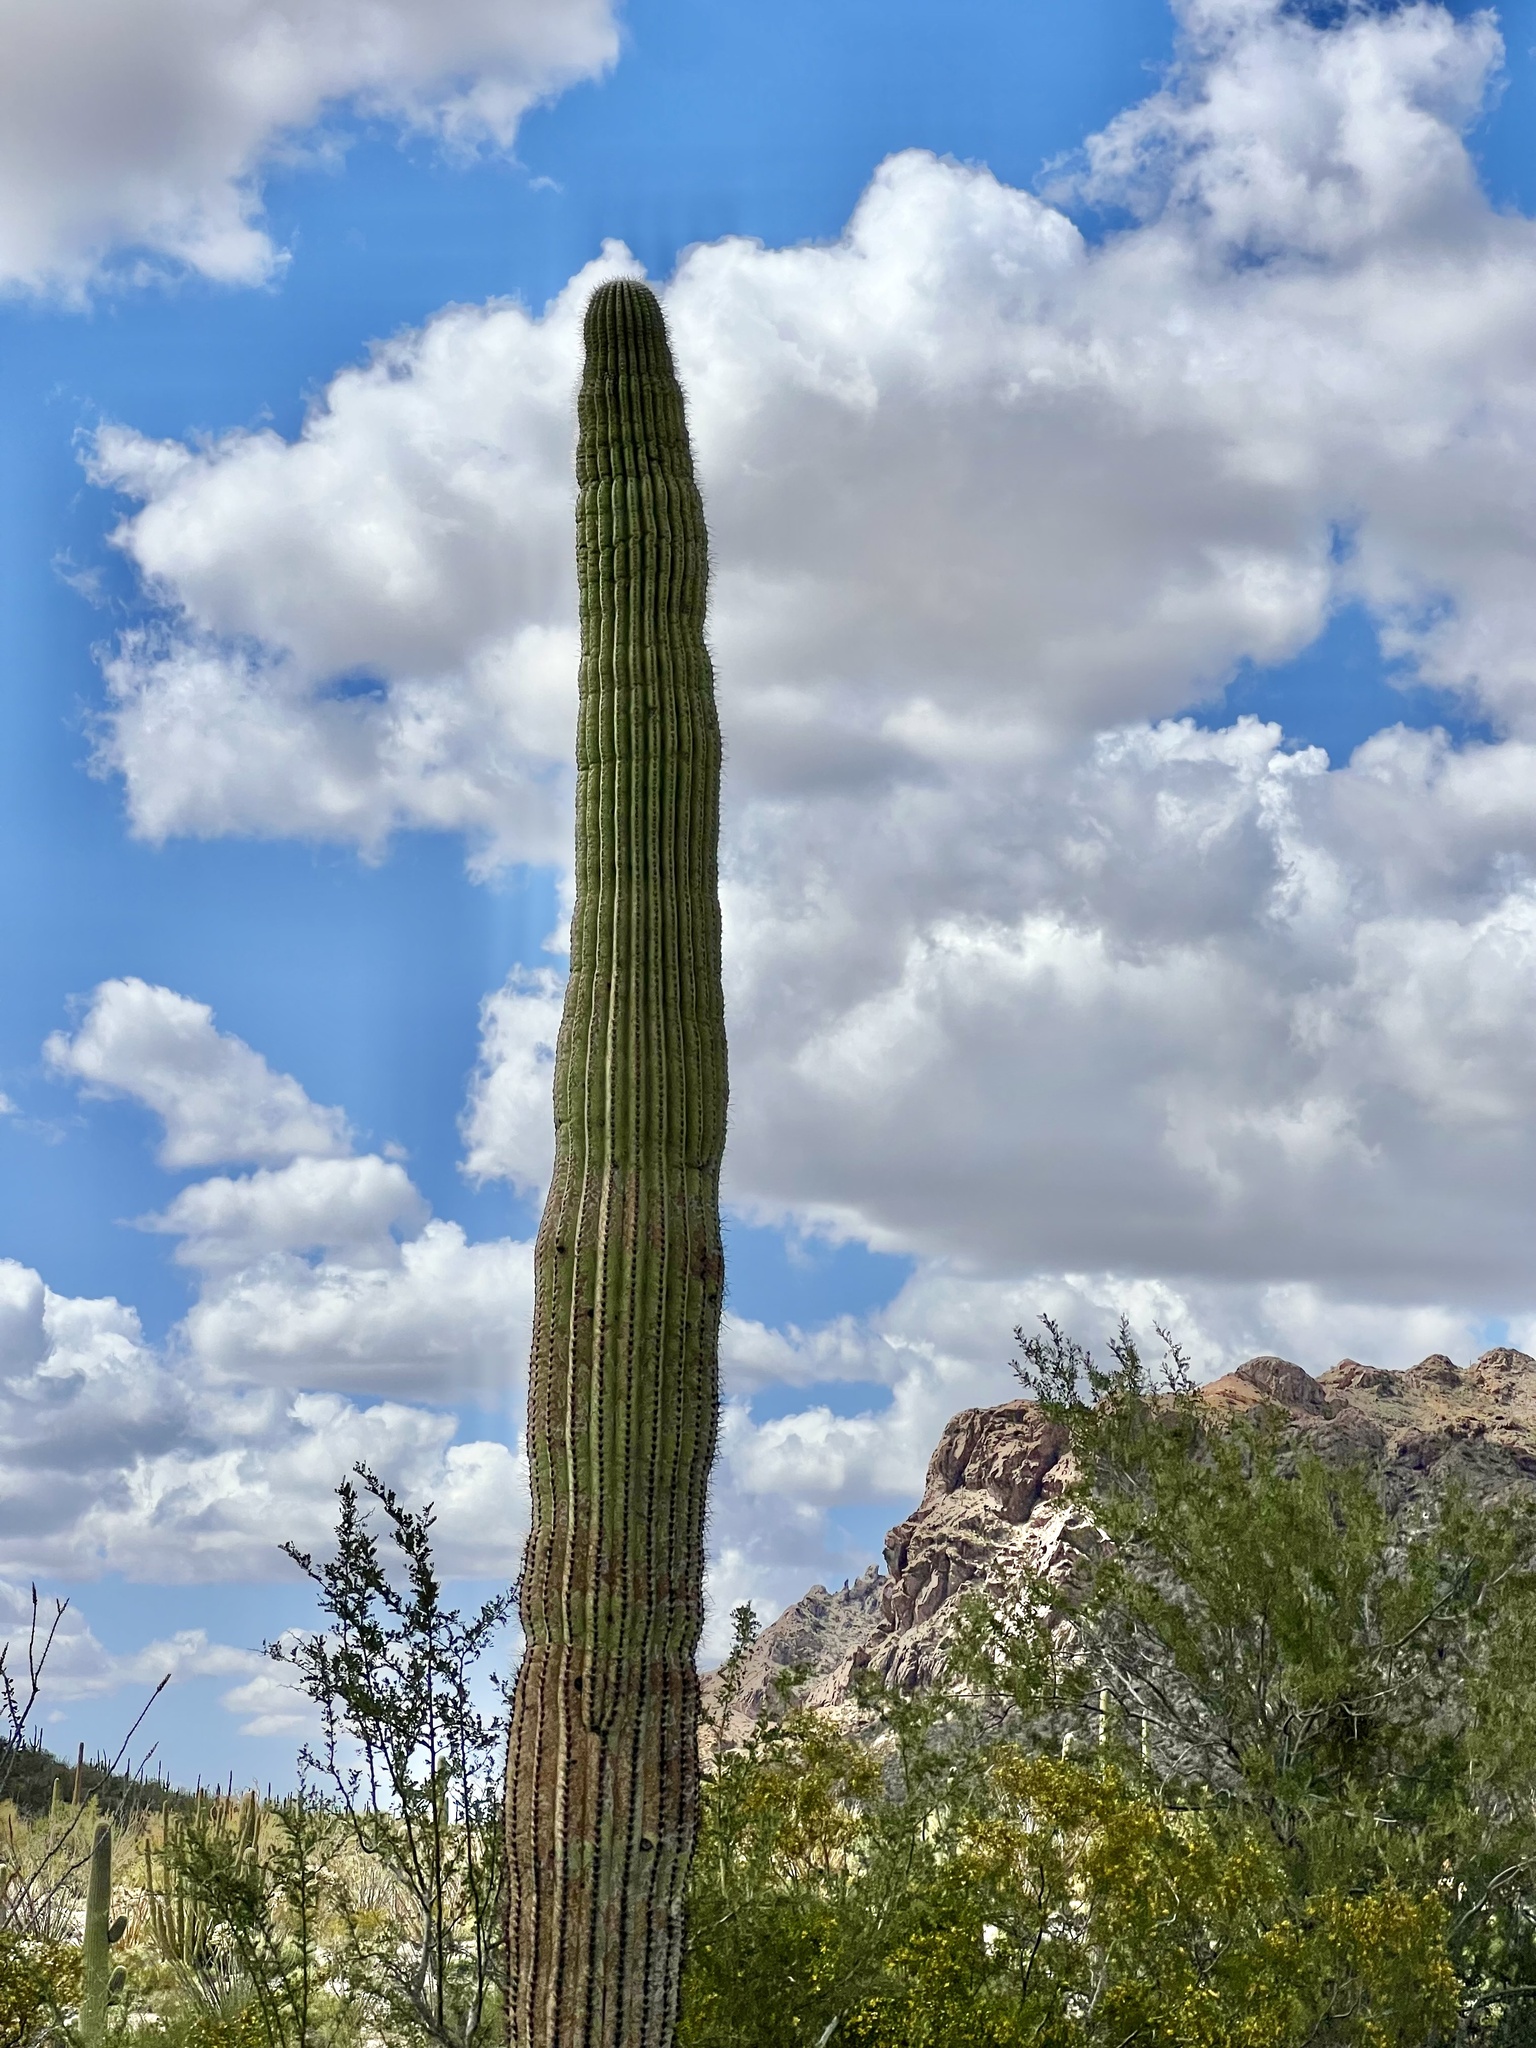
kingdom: Plantae
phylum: Tracheophyta
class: Magnoliopsida
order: Caryophyllales
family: Cactaceae
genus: Carnegiea
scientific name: Carnegiea gigantea
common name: Saguaro
